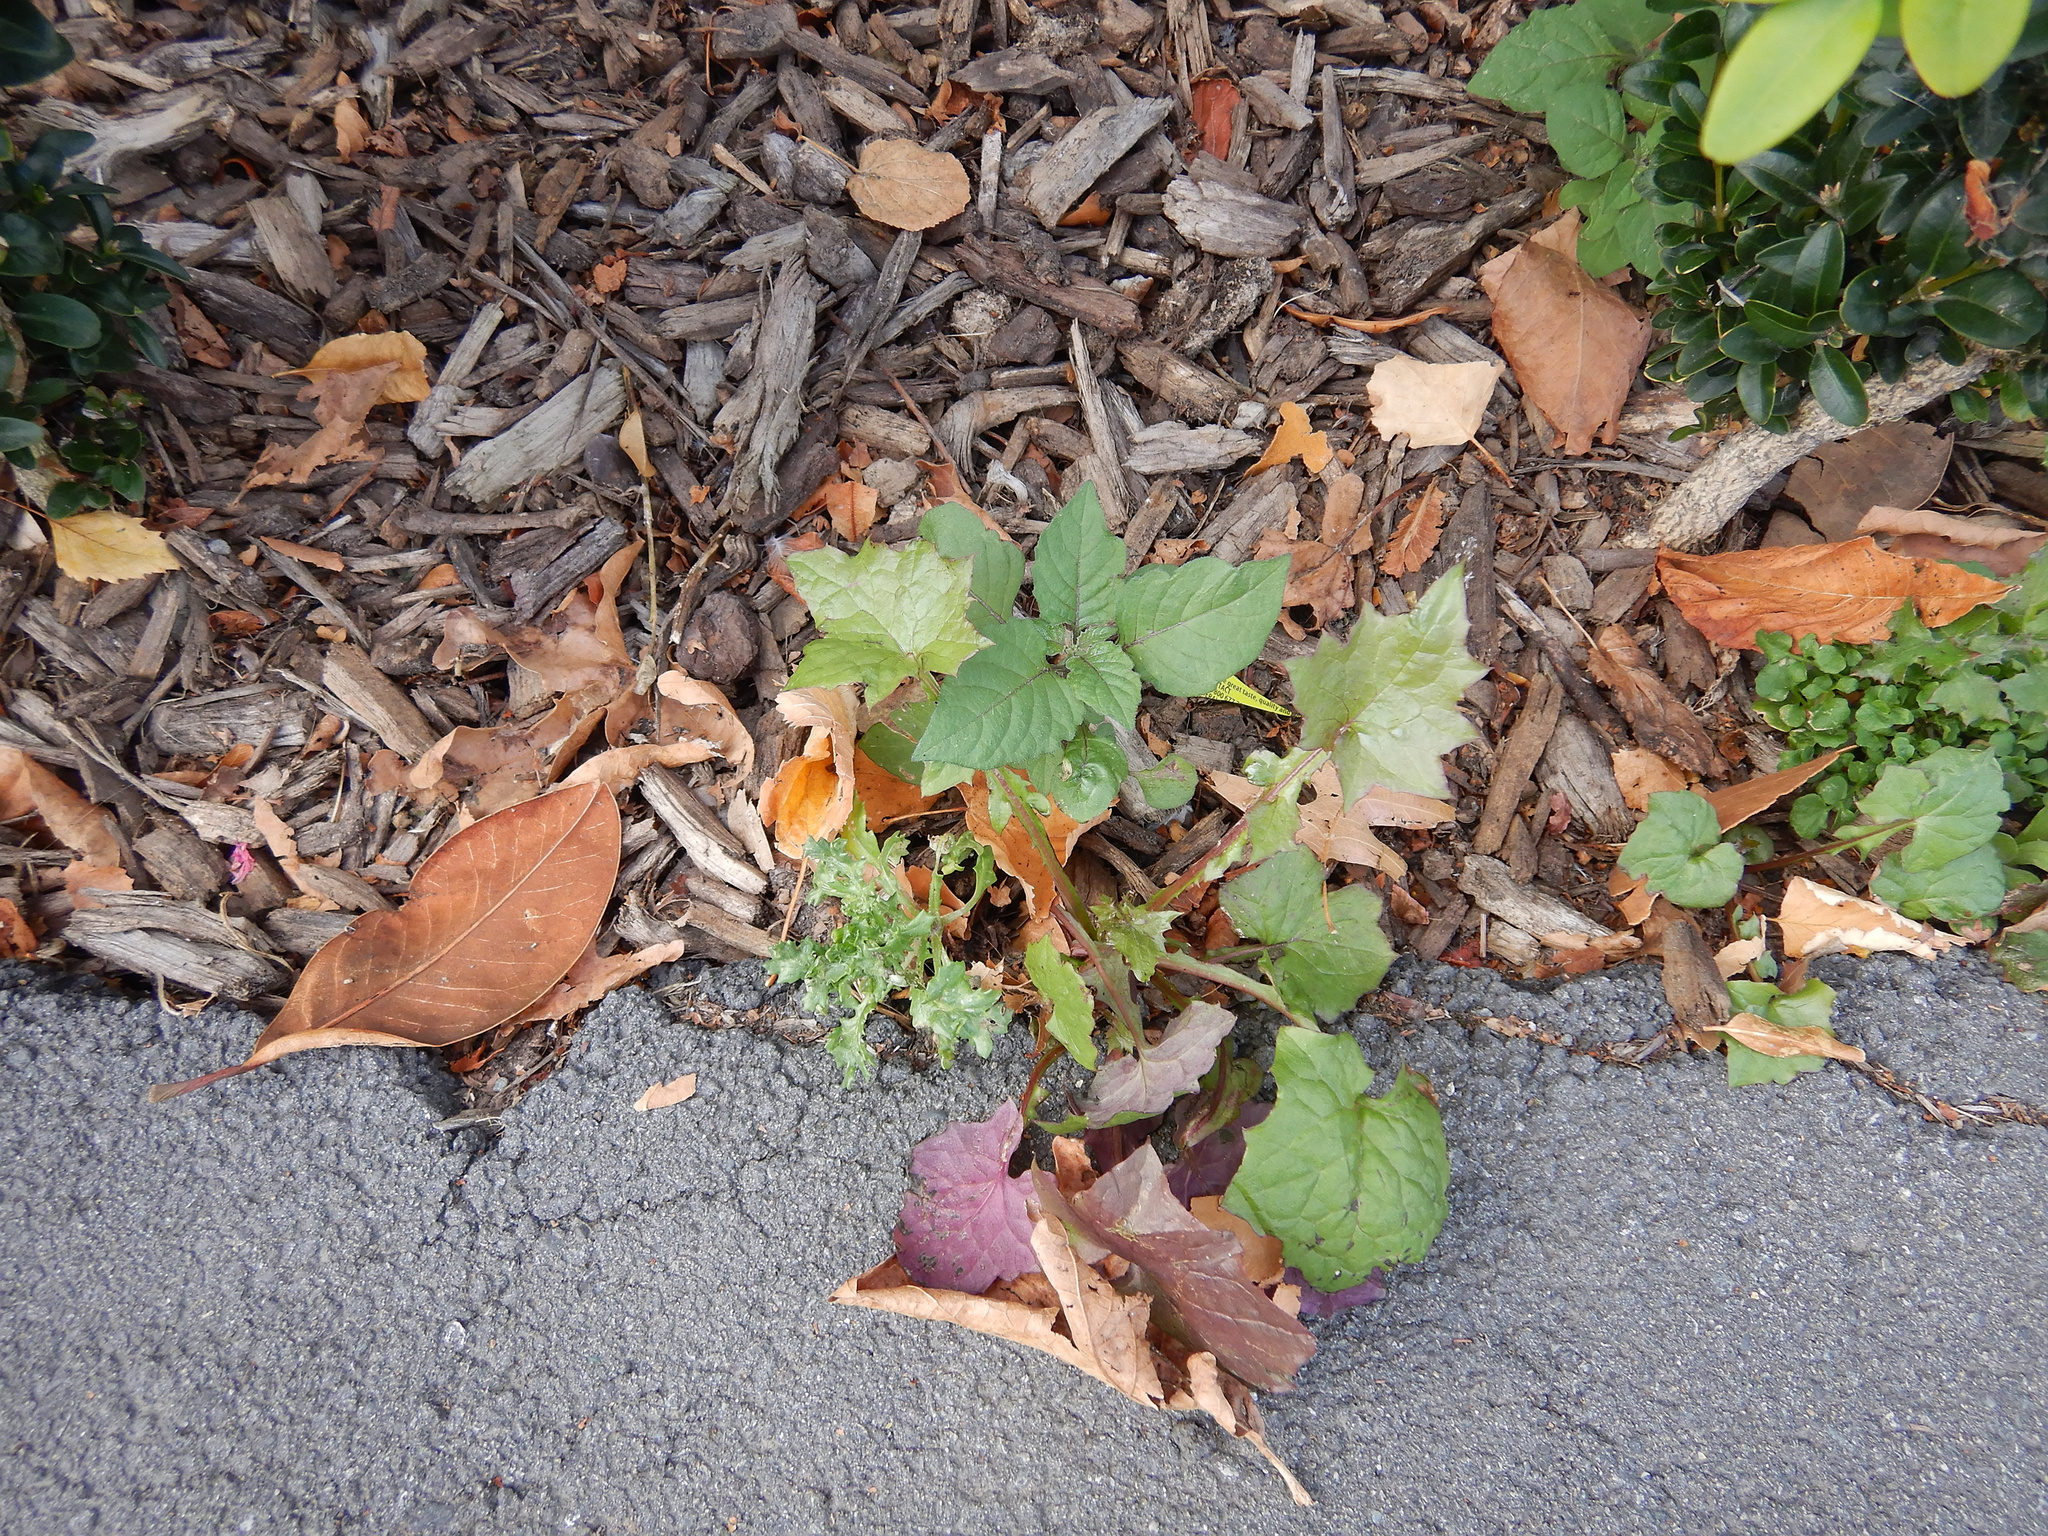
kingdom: Plantae
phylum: Tracheophyta
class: Magnoliopsida
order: Asterales
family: Asteraceae
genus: Senecio
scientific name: Senecio vulgaris
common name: Old-man-in-the-spring
